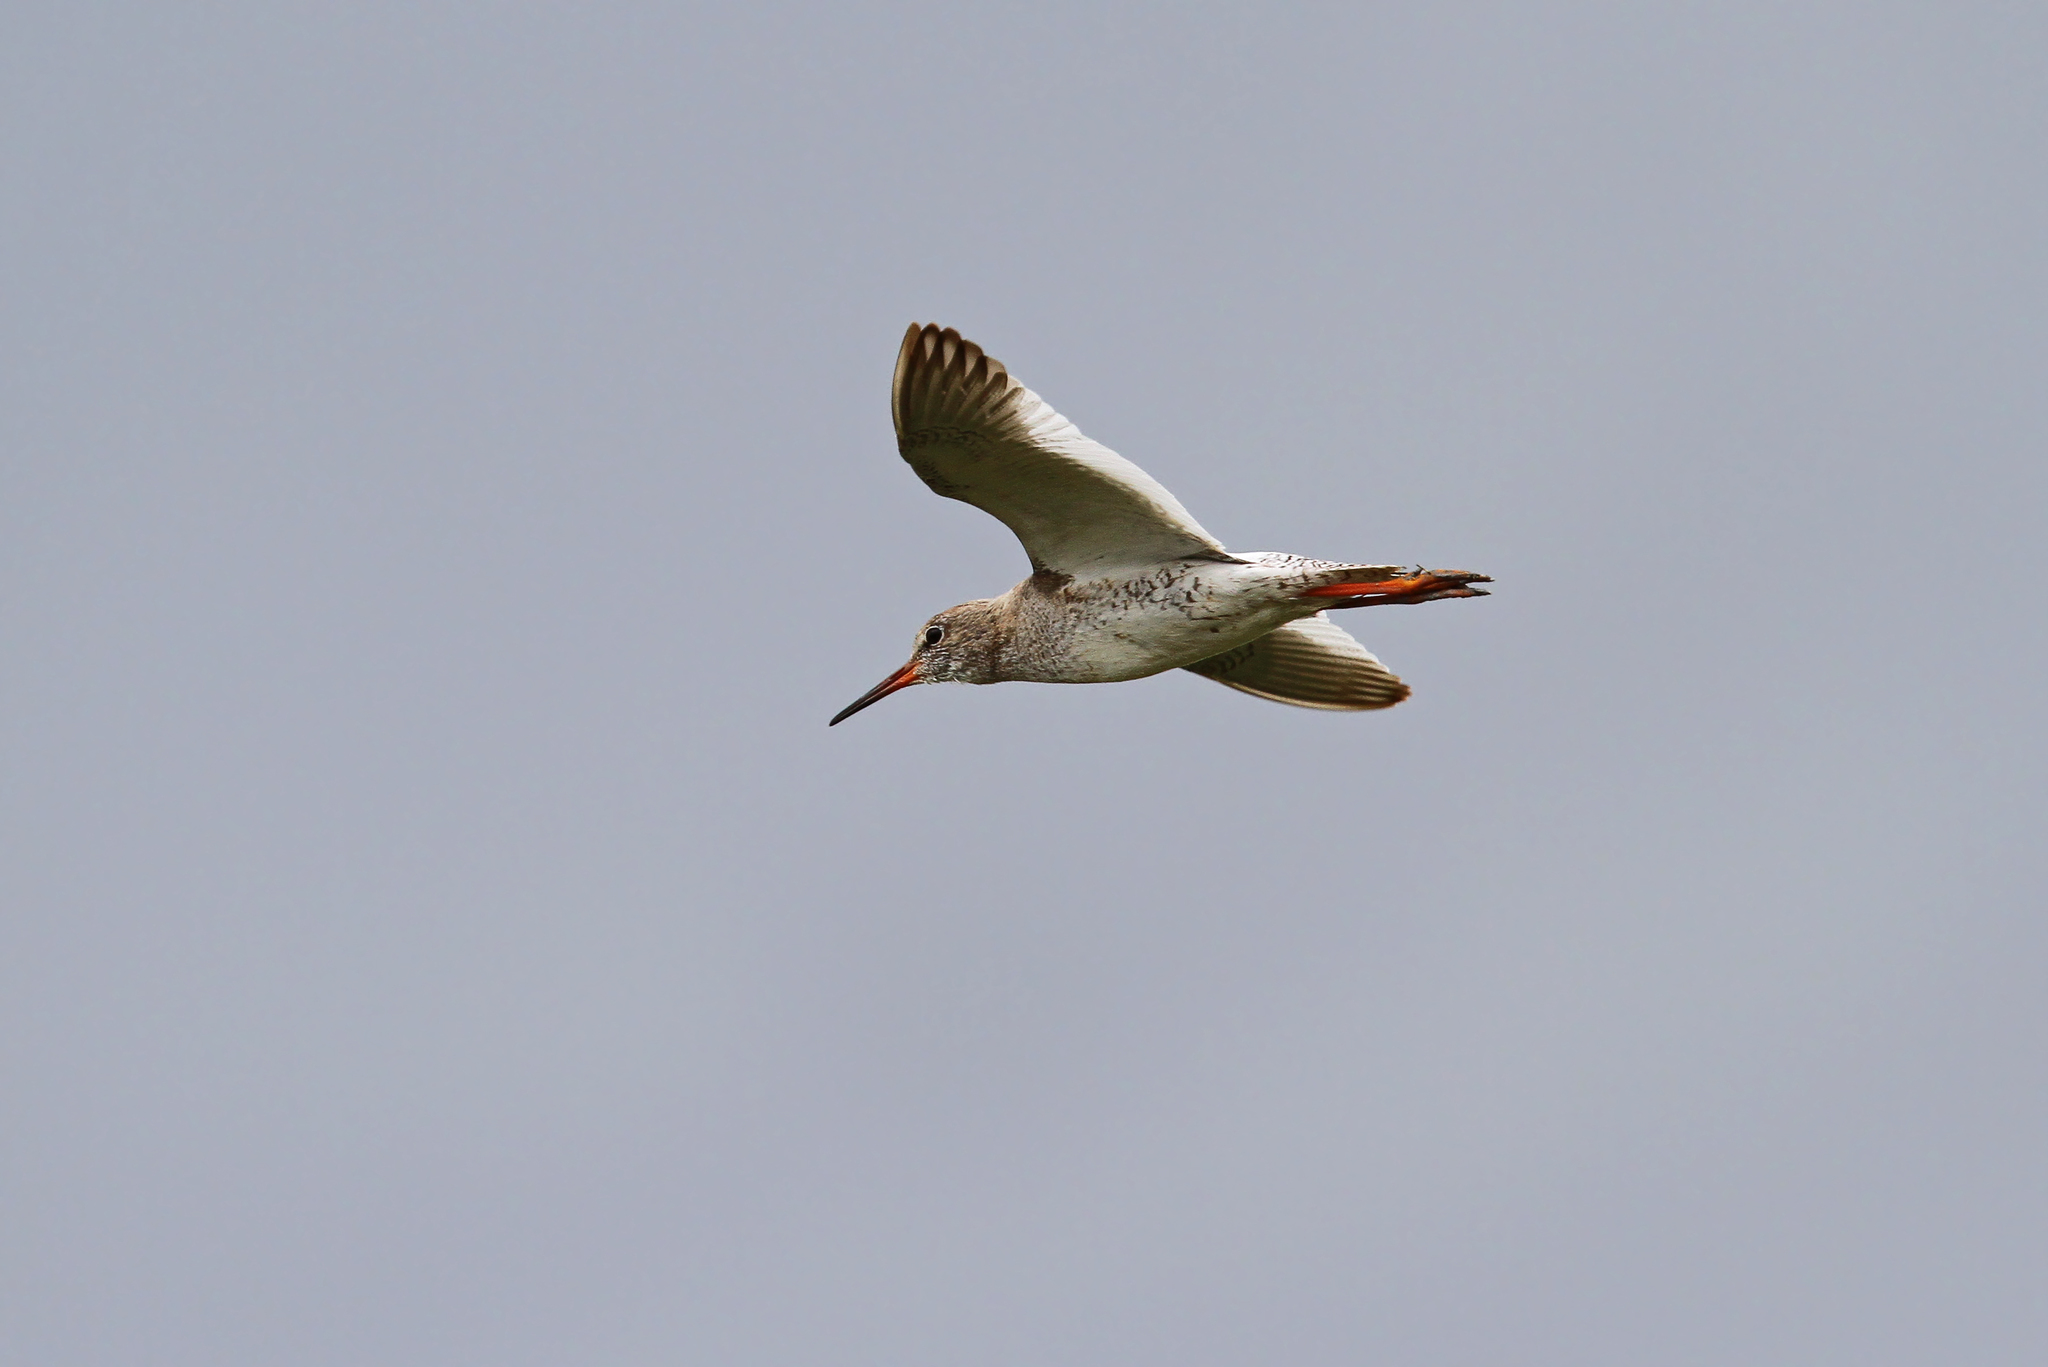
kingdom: Animalia
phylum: Chordata
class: Aves
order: Charadriiformes
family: Scolopacidae
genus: Tringa
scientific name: Tringa totanus
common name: Common redshank
